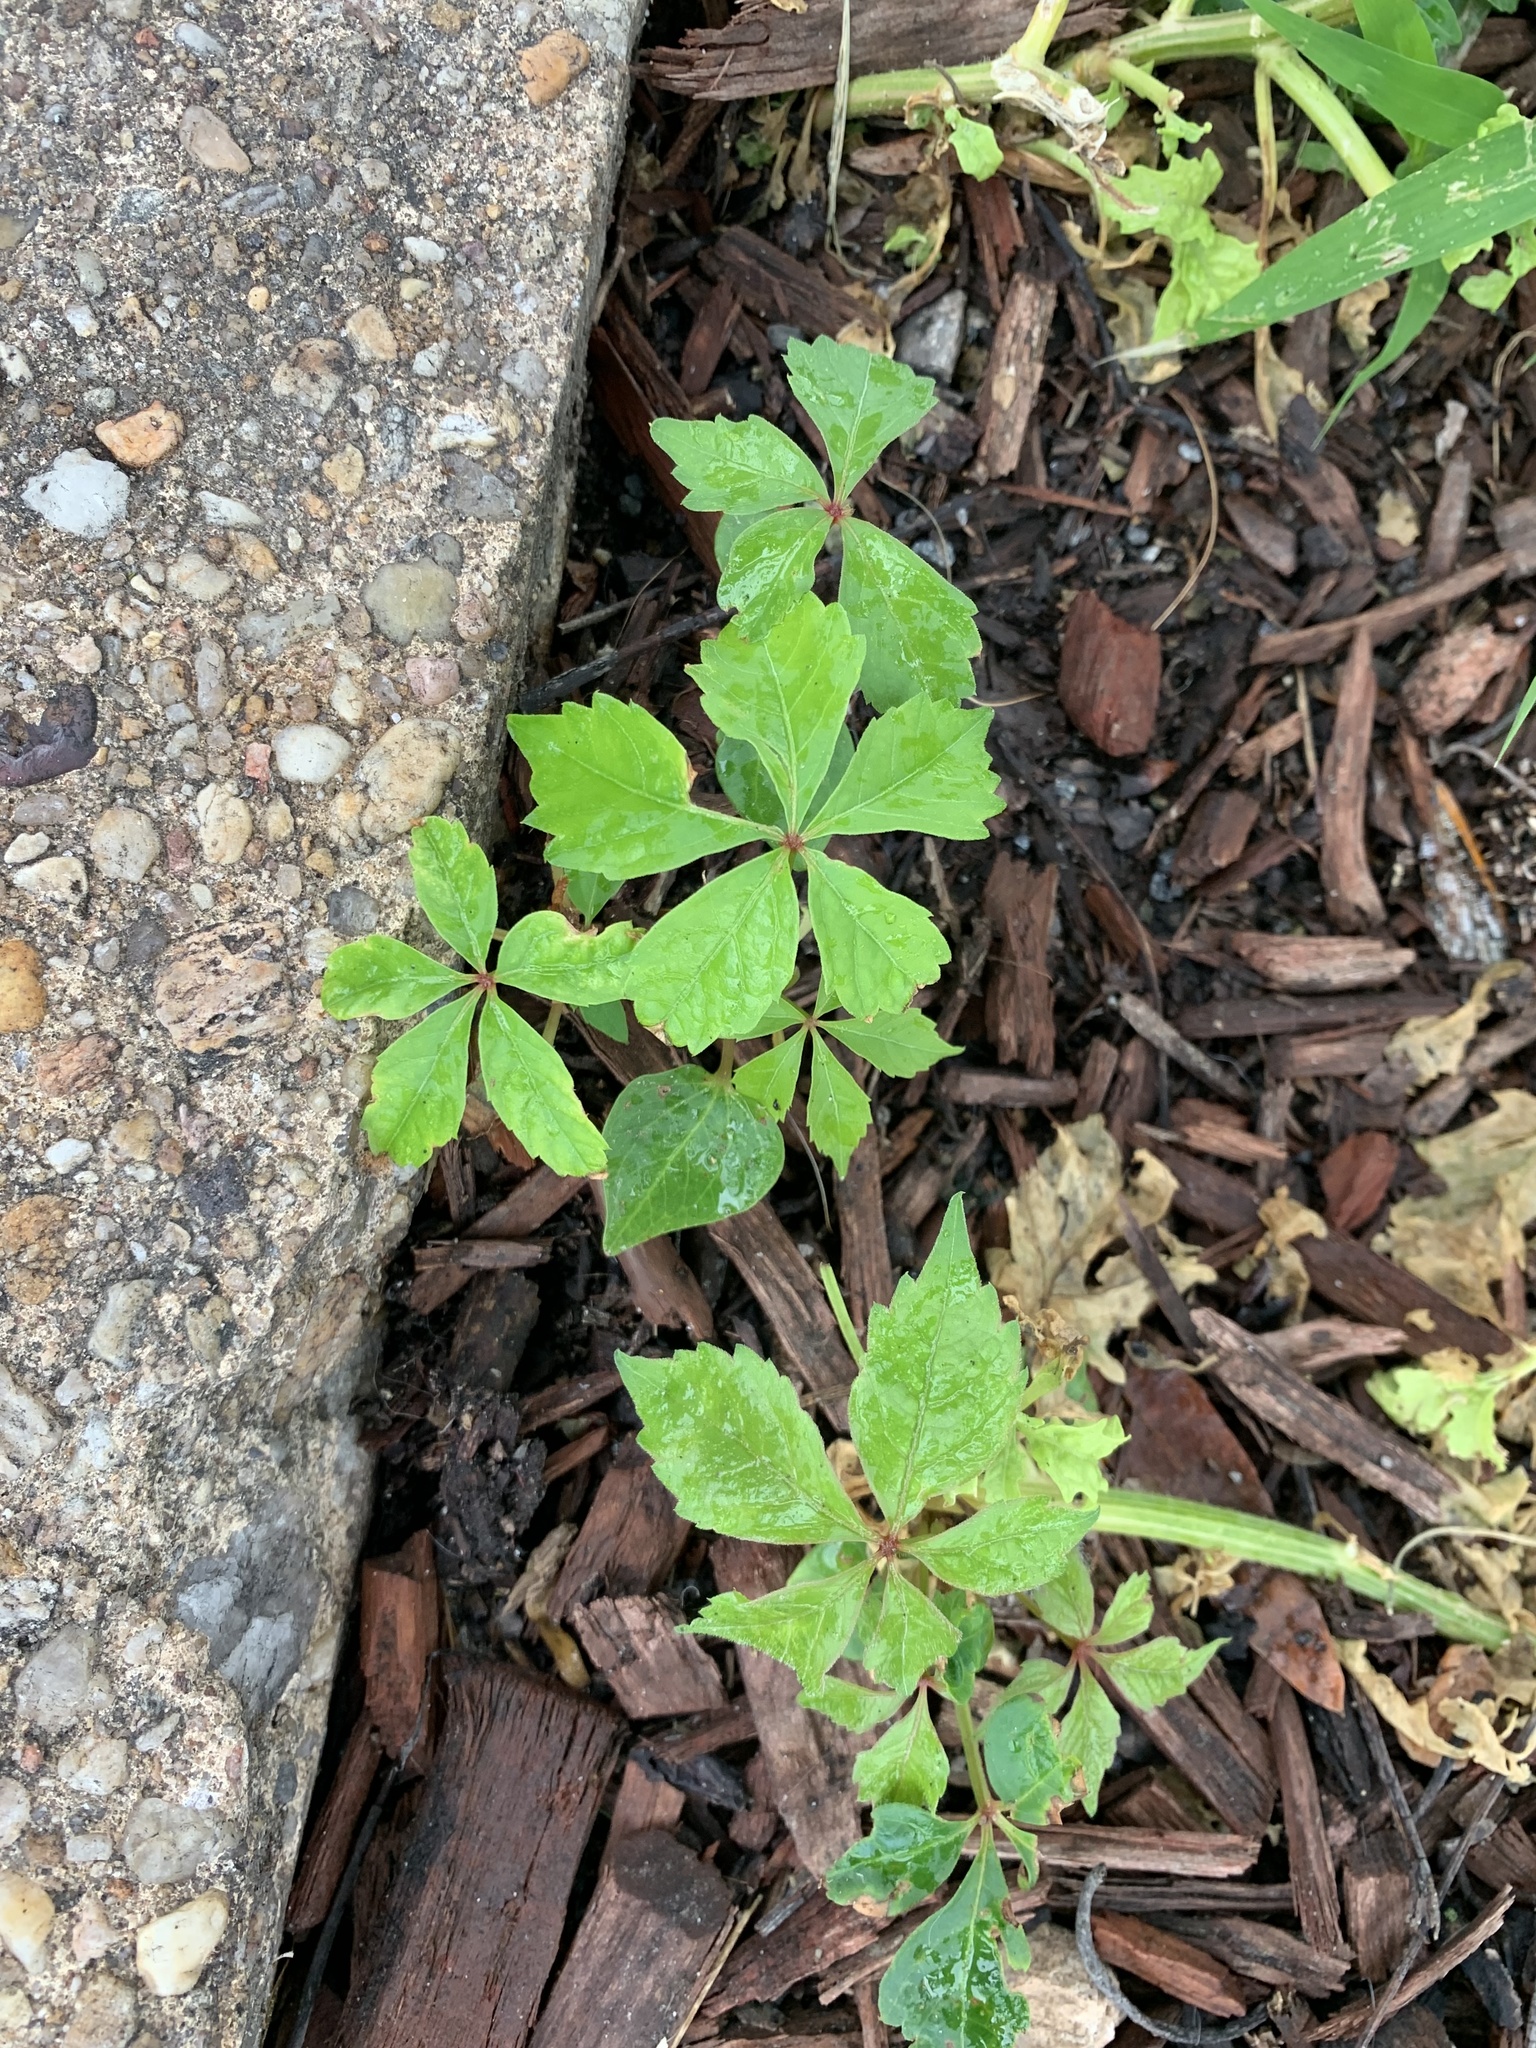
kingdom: Plantae
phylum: Tracheophyta
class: Magnoliopsida
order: Vitales
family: Vitaceae
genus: Parthenocissus
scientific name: Parthenocissus quinquefolia
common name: Virginia-creeper
